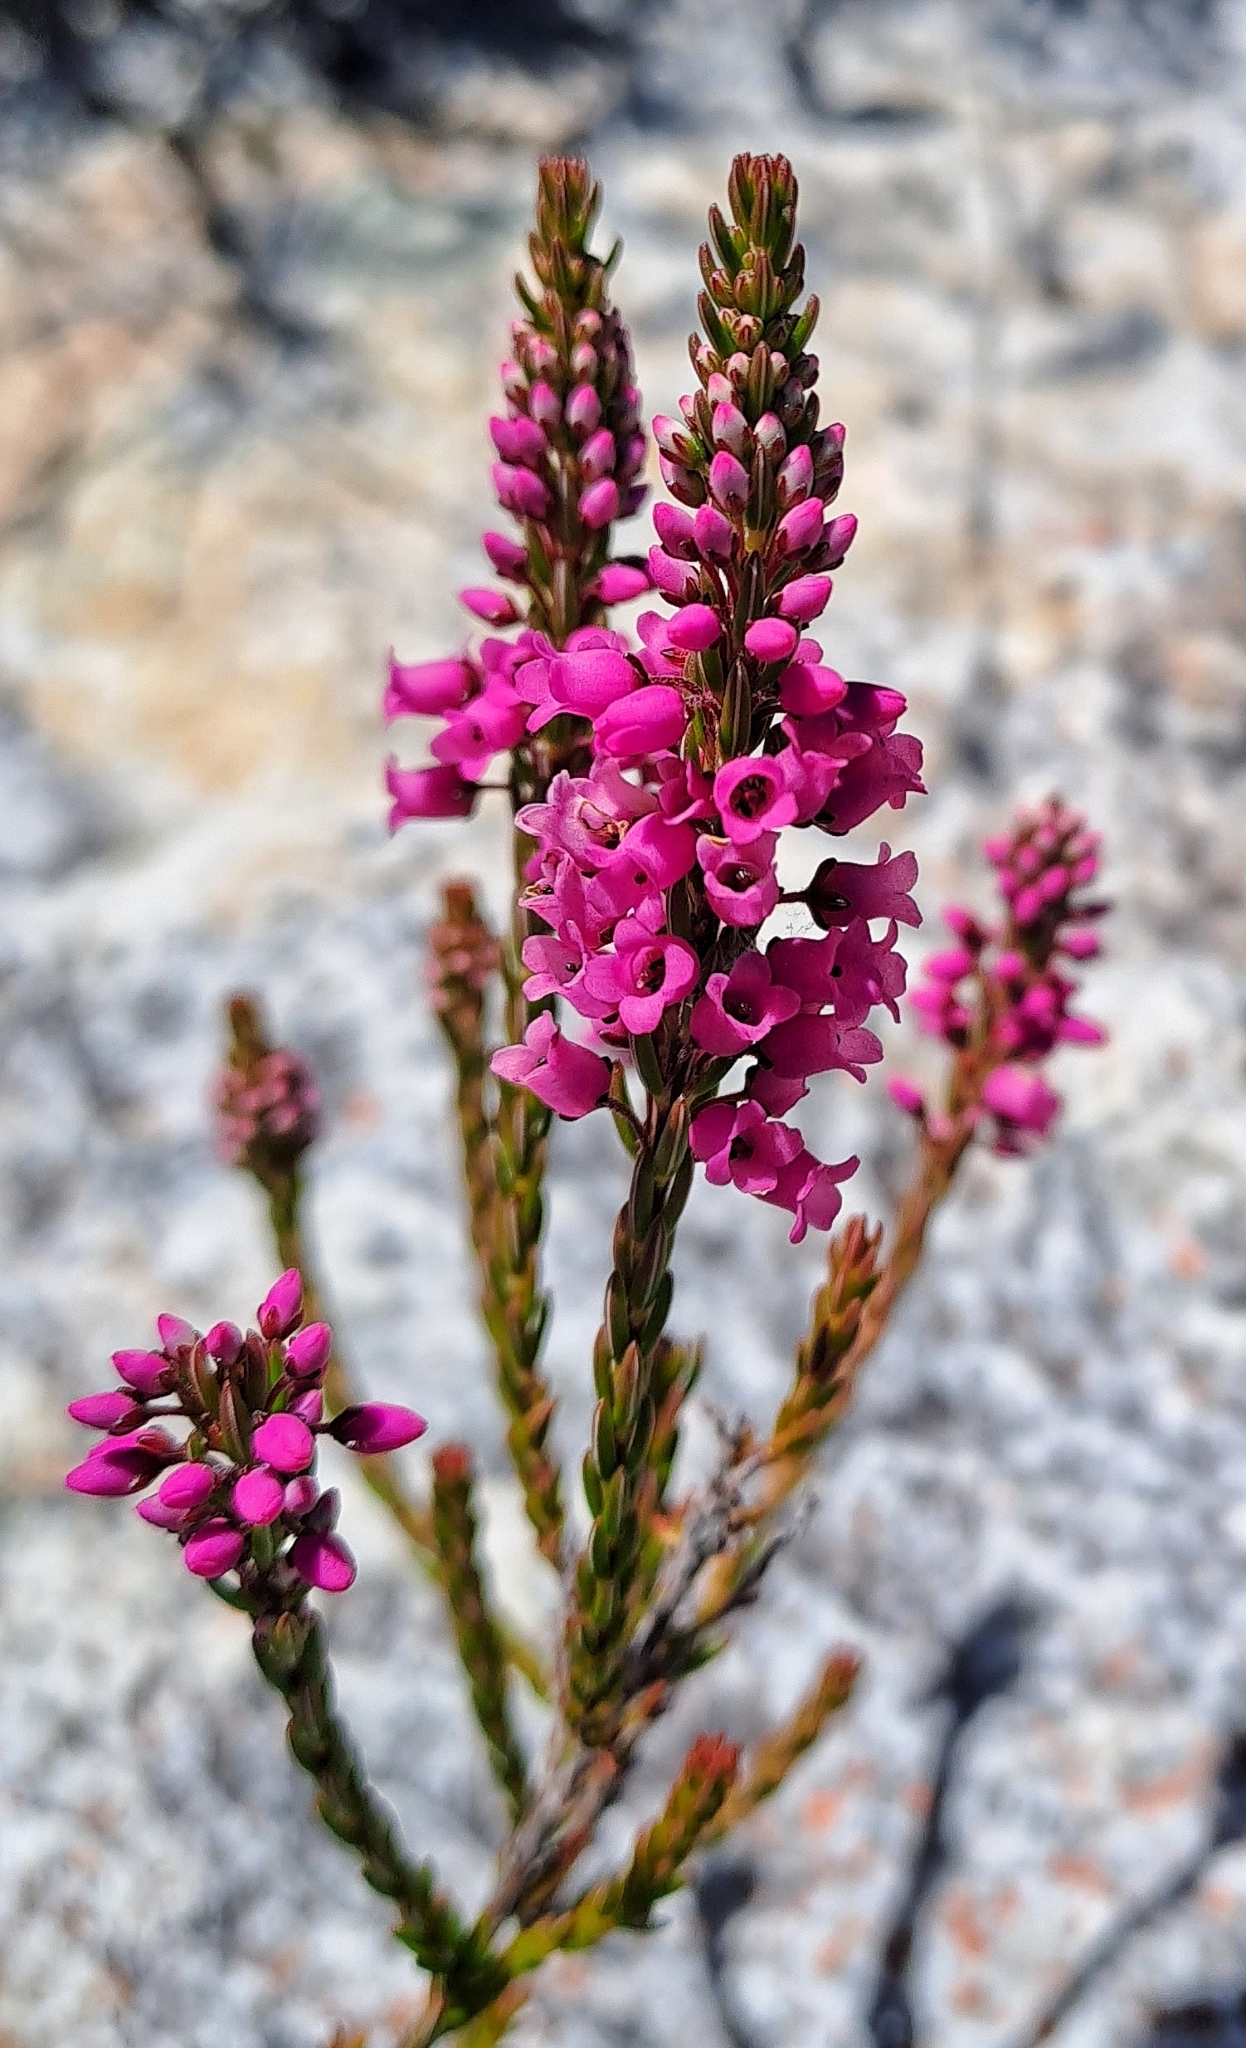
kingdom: Plantae
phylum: Tracheophyta
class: Magnoliopsida
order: Ericales
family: Ericaceae
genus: Erica
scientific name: Erica pulchella
